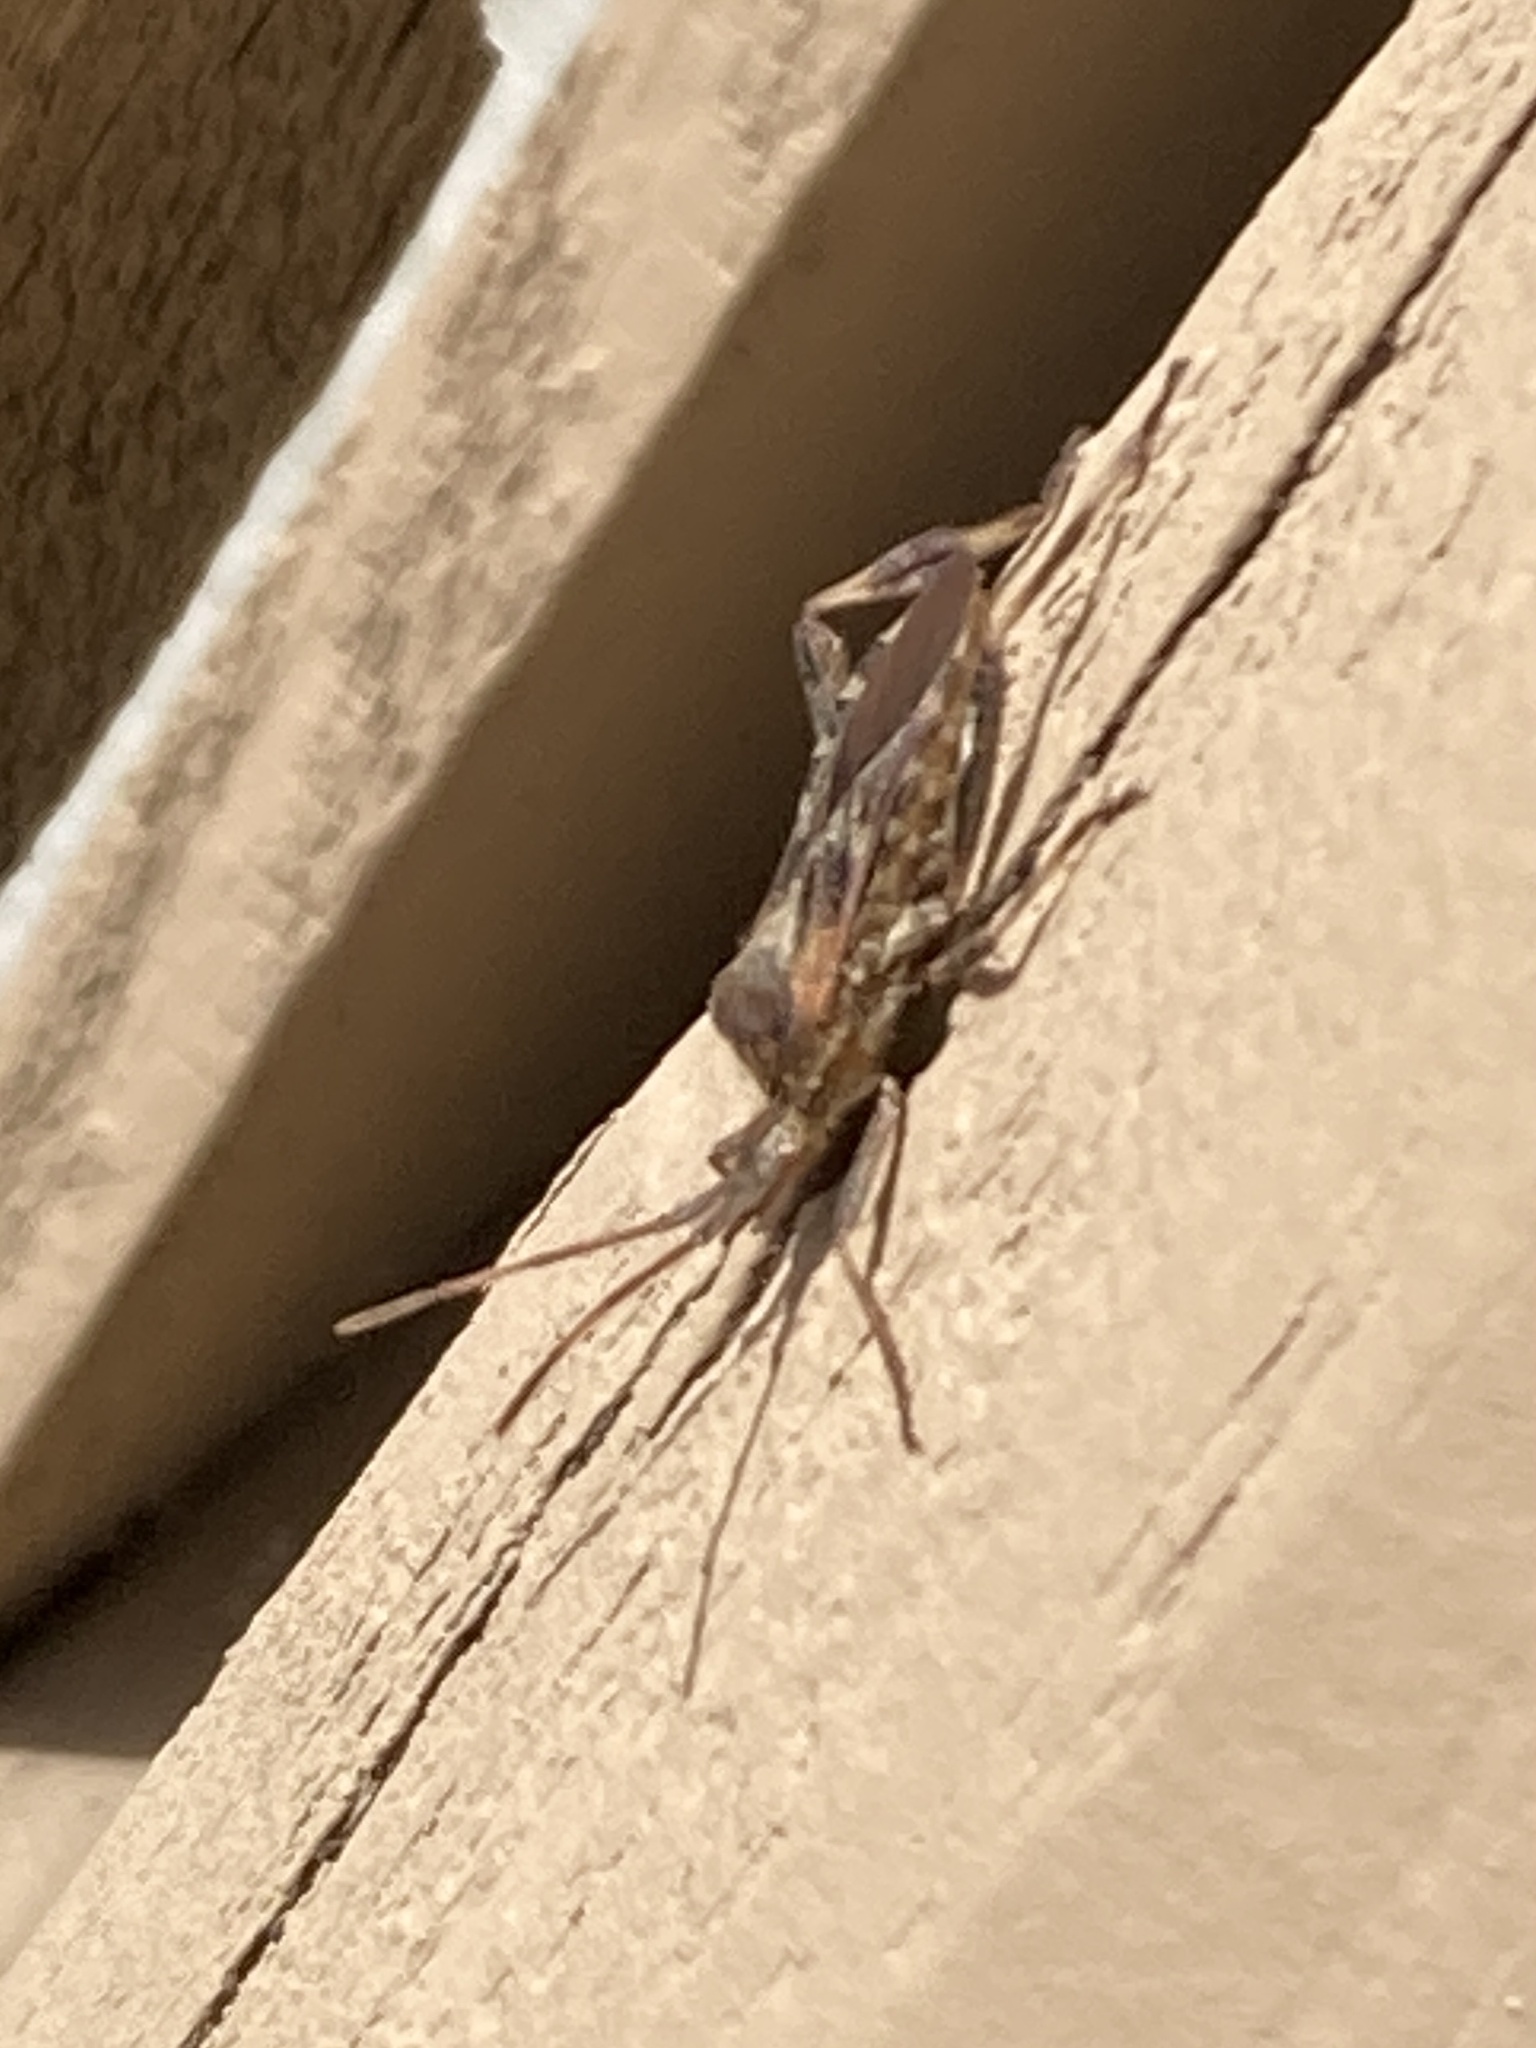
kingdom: Animalia
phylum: Arthropoda
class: Insecta
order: Hemiptera
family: Coreidae
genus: Leptoglossus
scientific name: Leptoglossus occidentalis
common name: Western conifer-seed bug
